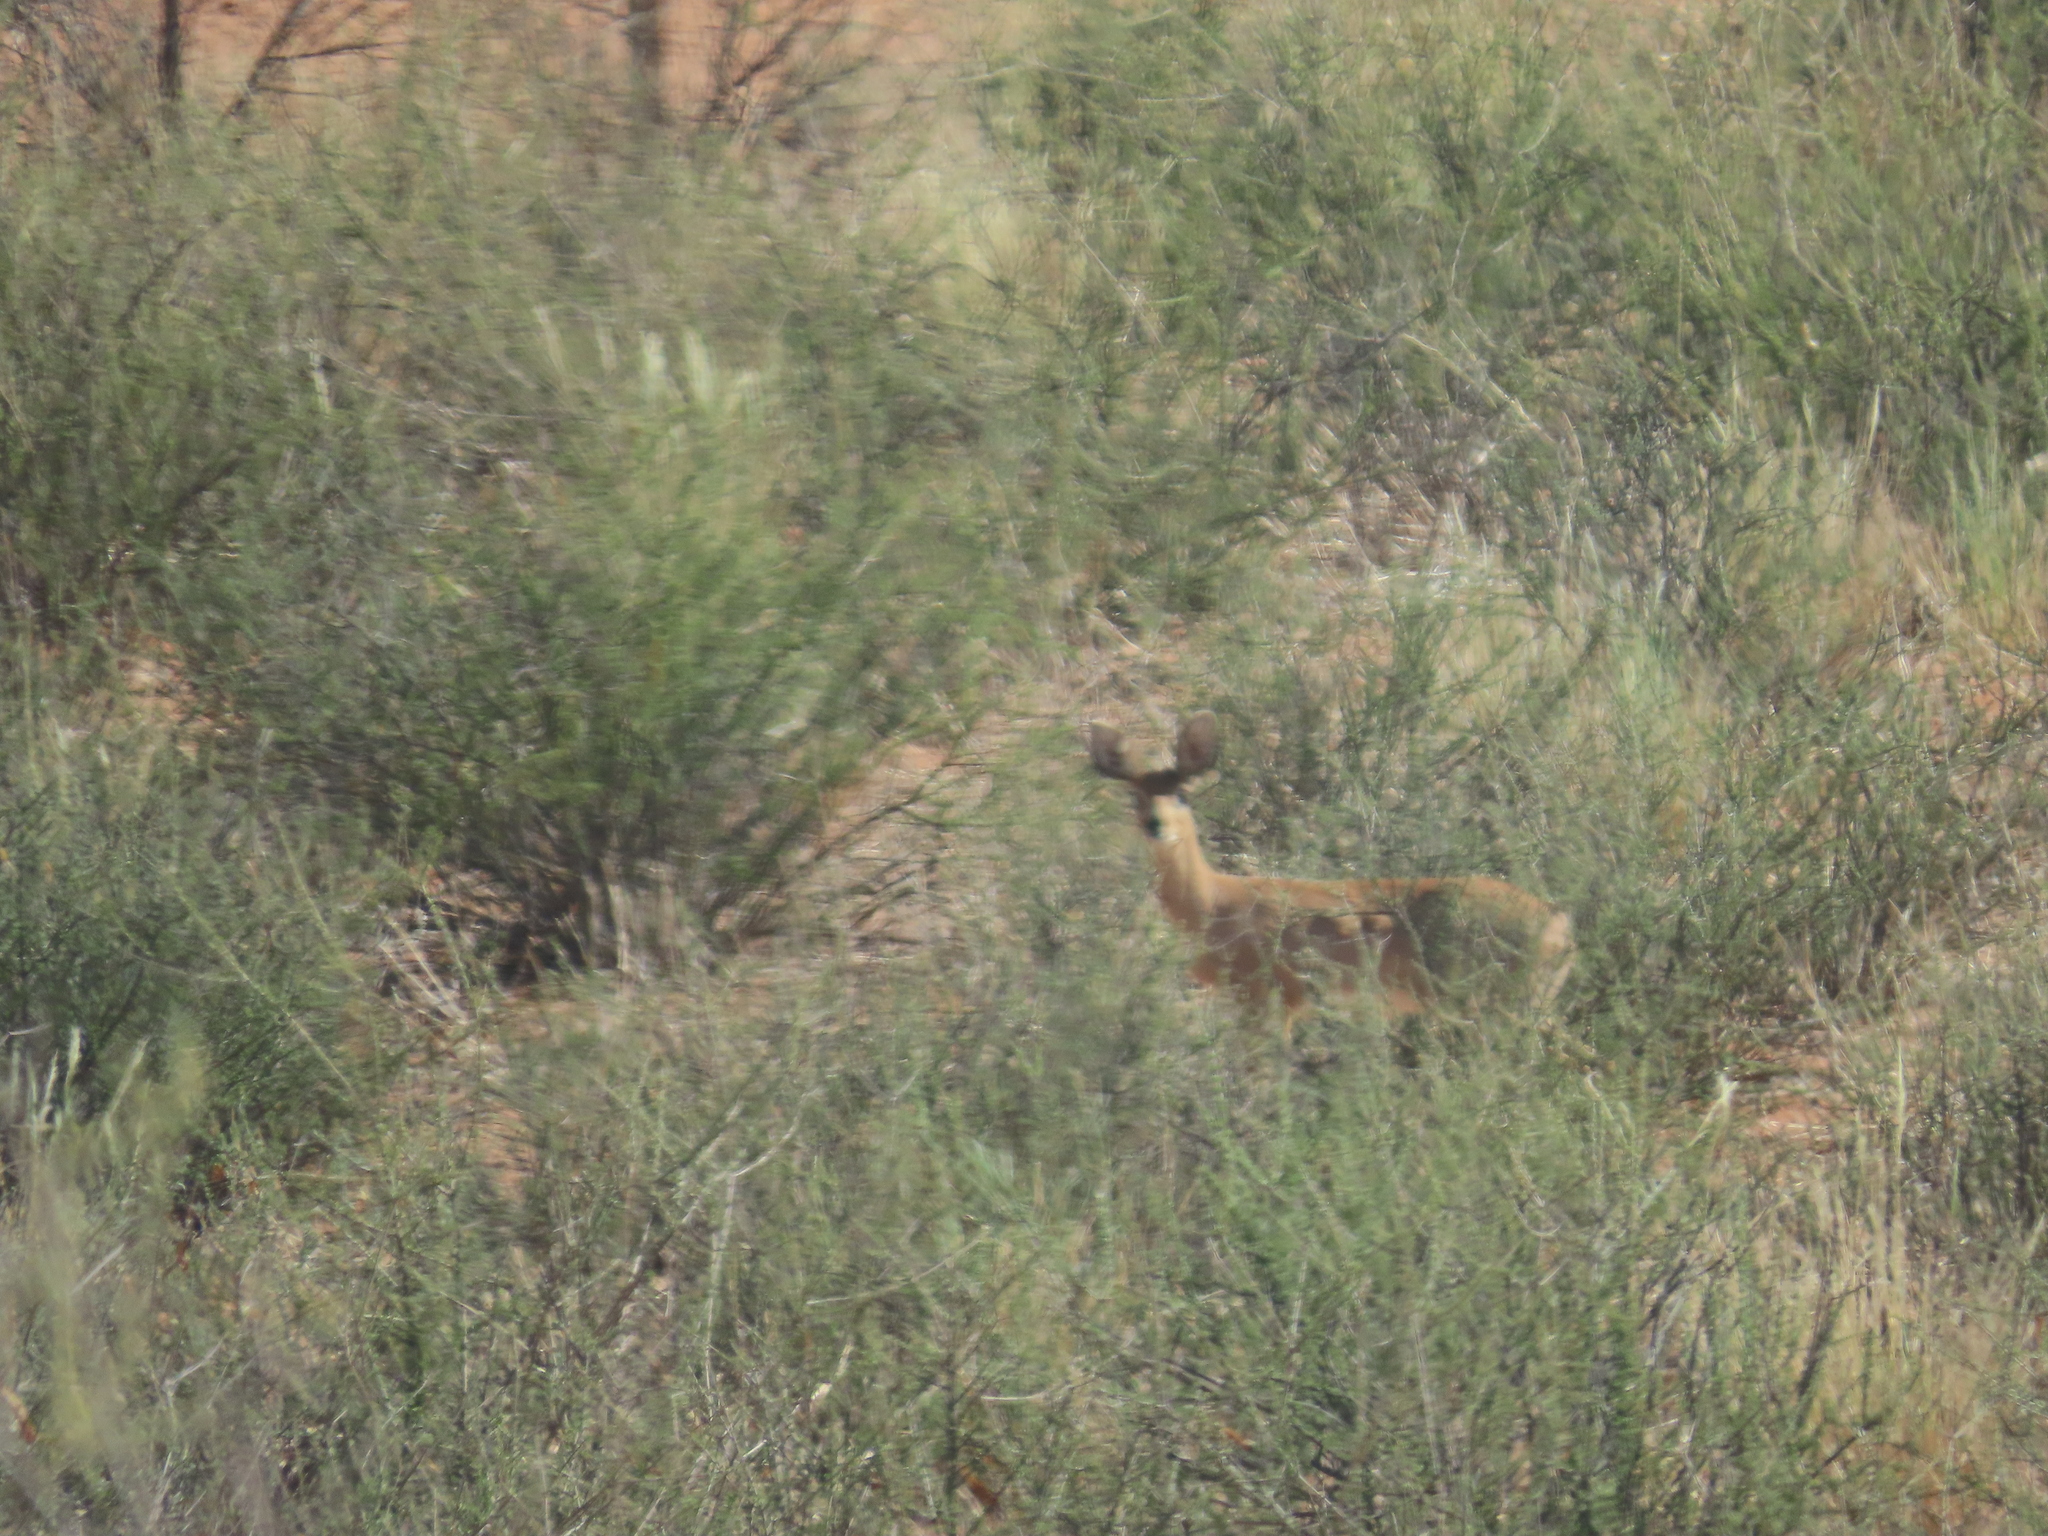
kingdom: Animalia
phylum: Chordata
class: Mammalia
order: Artiodactyla
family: Bovidae
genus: Raphicerus
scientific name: Raphicerus campestris
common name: Steenbok
